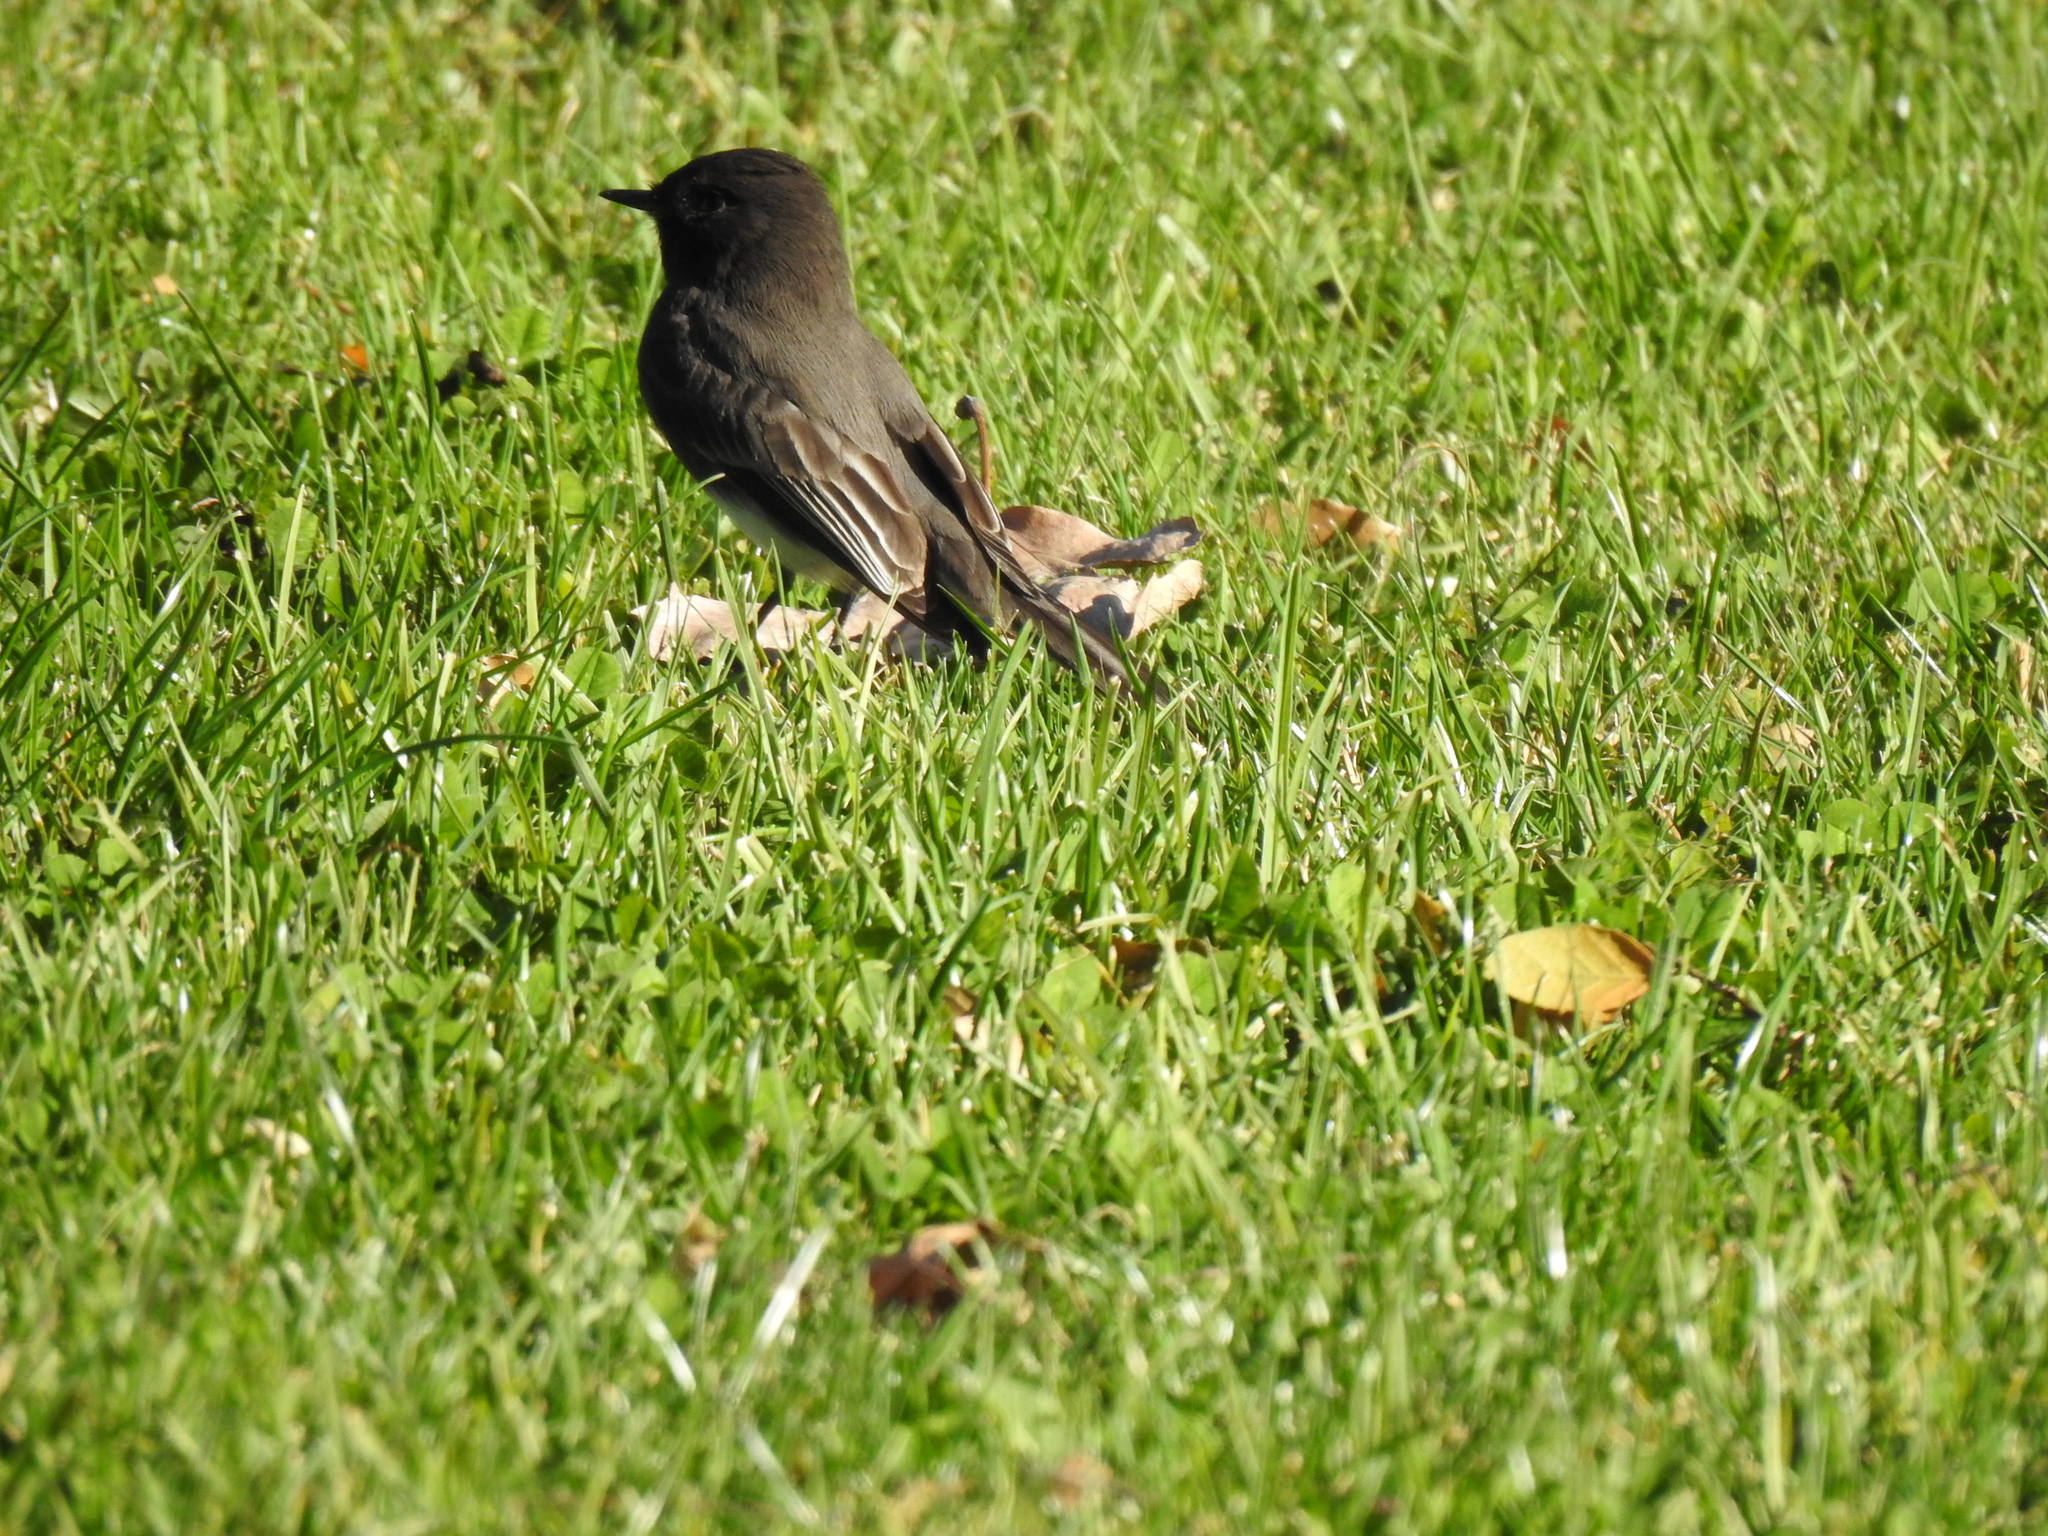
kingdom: Animalia
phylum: Chordata
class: Aves
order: Passeriformes
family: Tyrannidae
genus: Sayornis
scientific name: Sayornis nigricans
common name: Black phoebe
